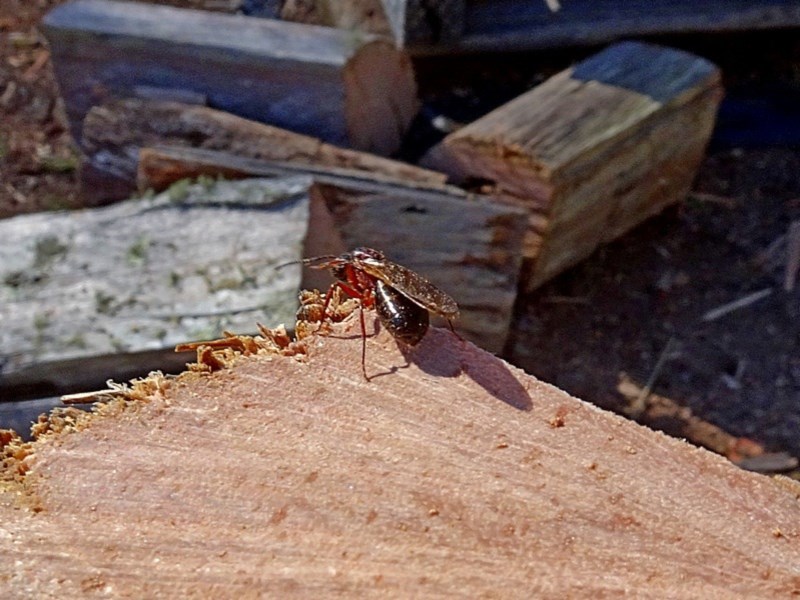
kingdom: Animalia
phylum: Arthropoda
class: Insecta
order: Hymenoptera
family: Formicidae
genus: Camponotus
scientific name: Camponotus innexus
